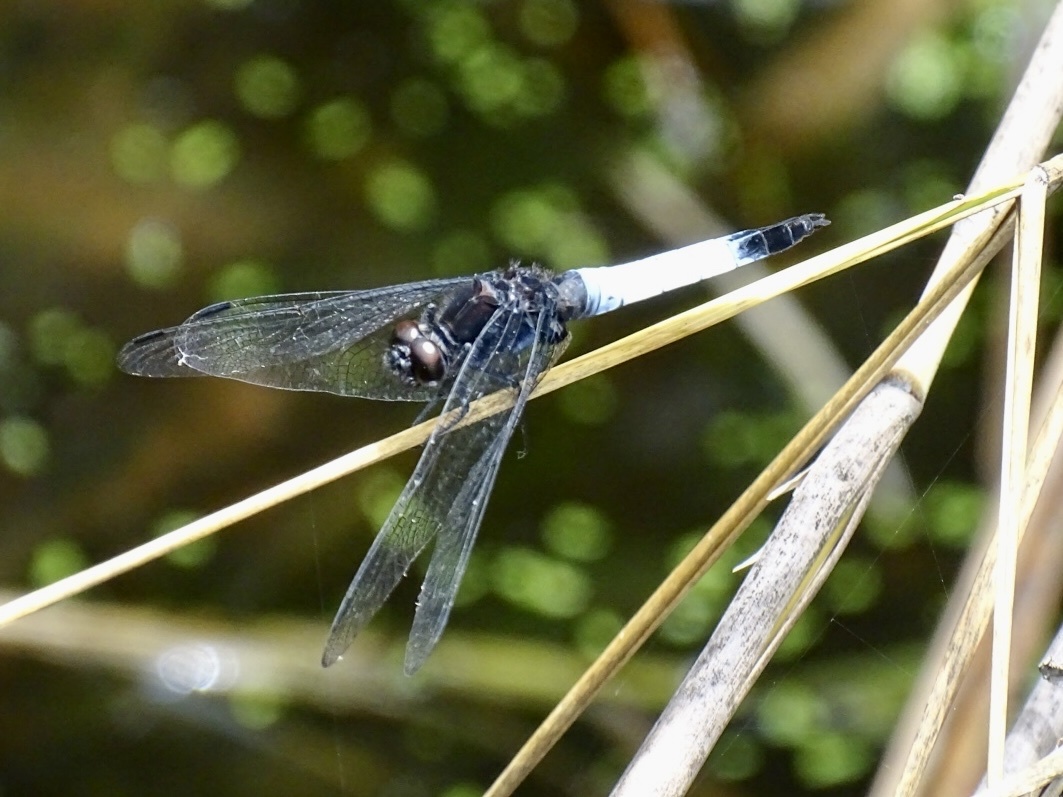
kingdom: Animalia
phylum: Arthropoda
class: Insecta
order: Odonata
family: Libellulidae
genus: Orthetrum
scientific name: Orthetrum triangulare
